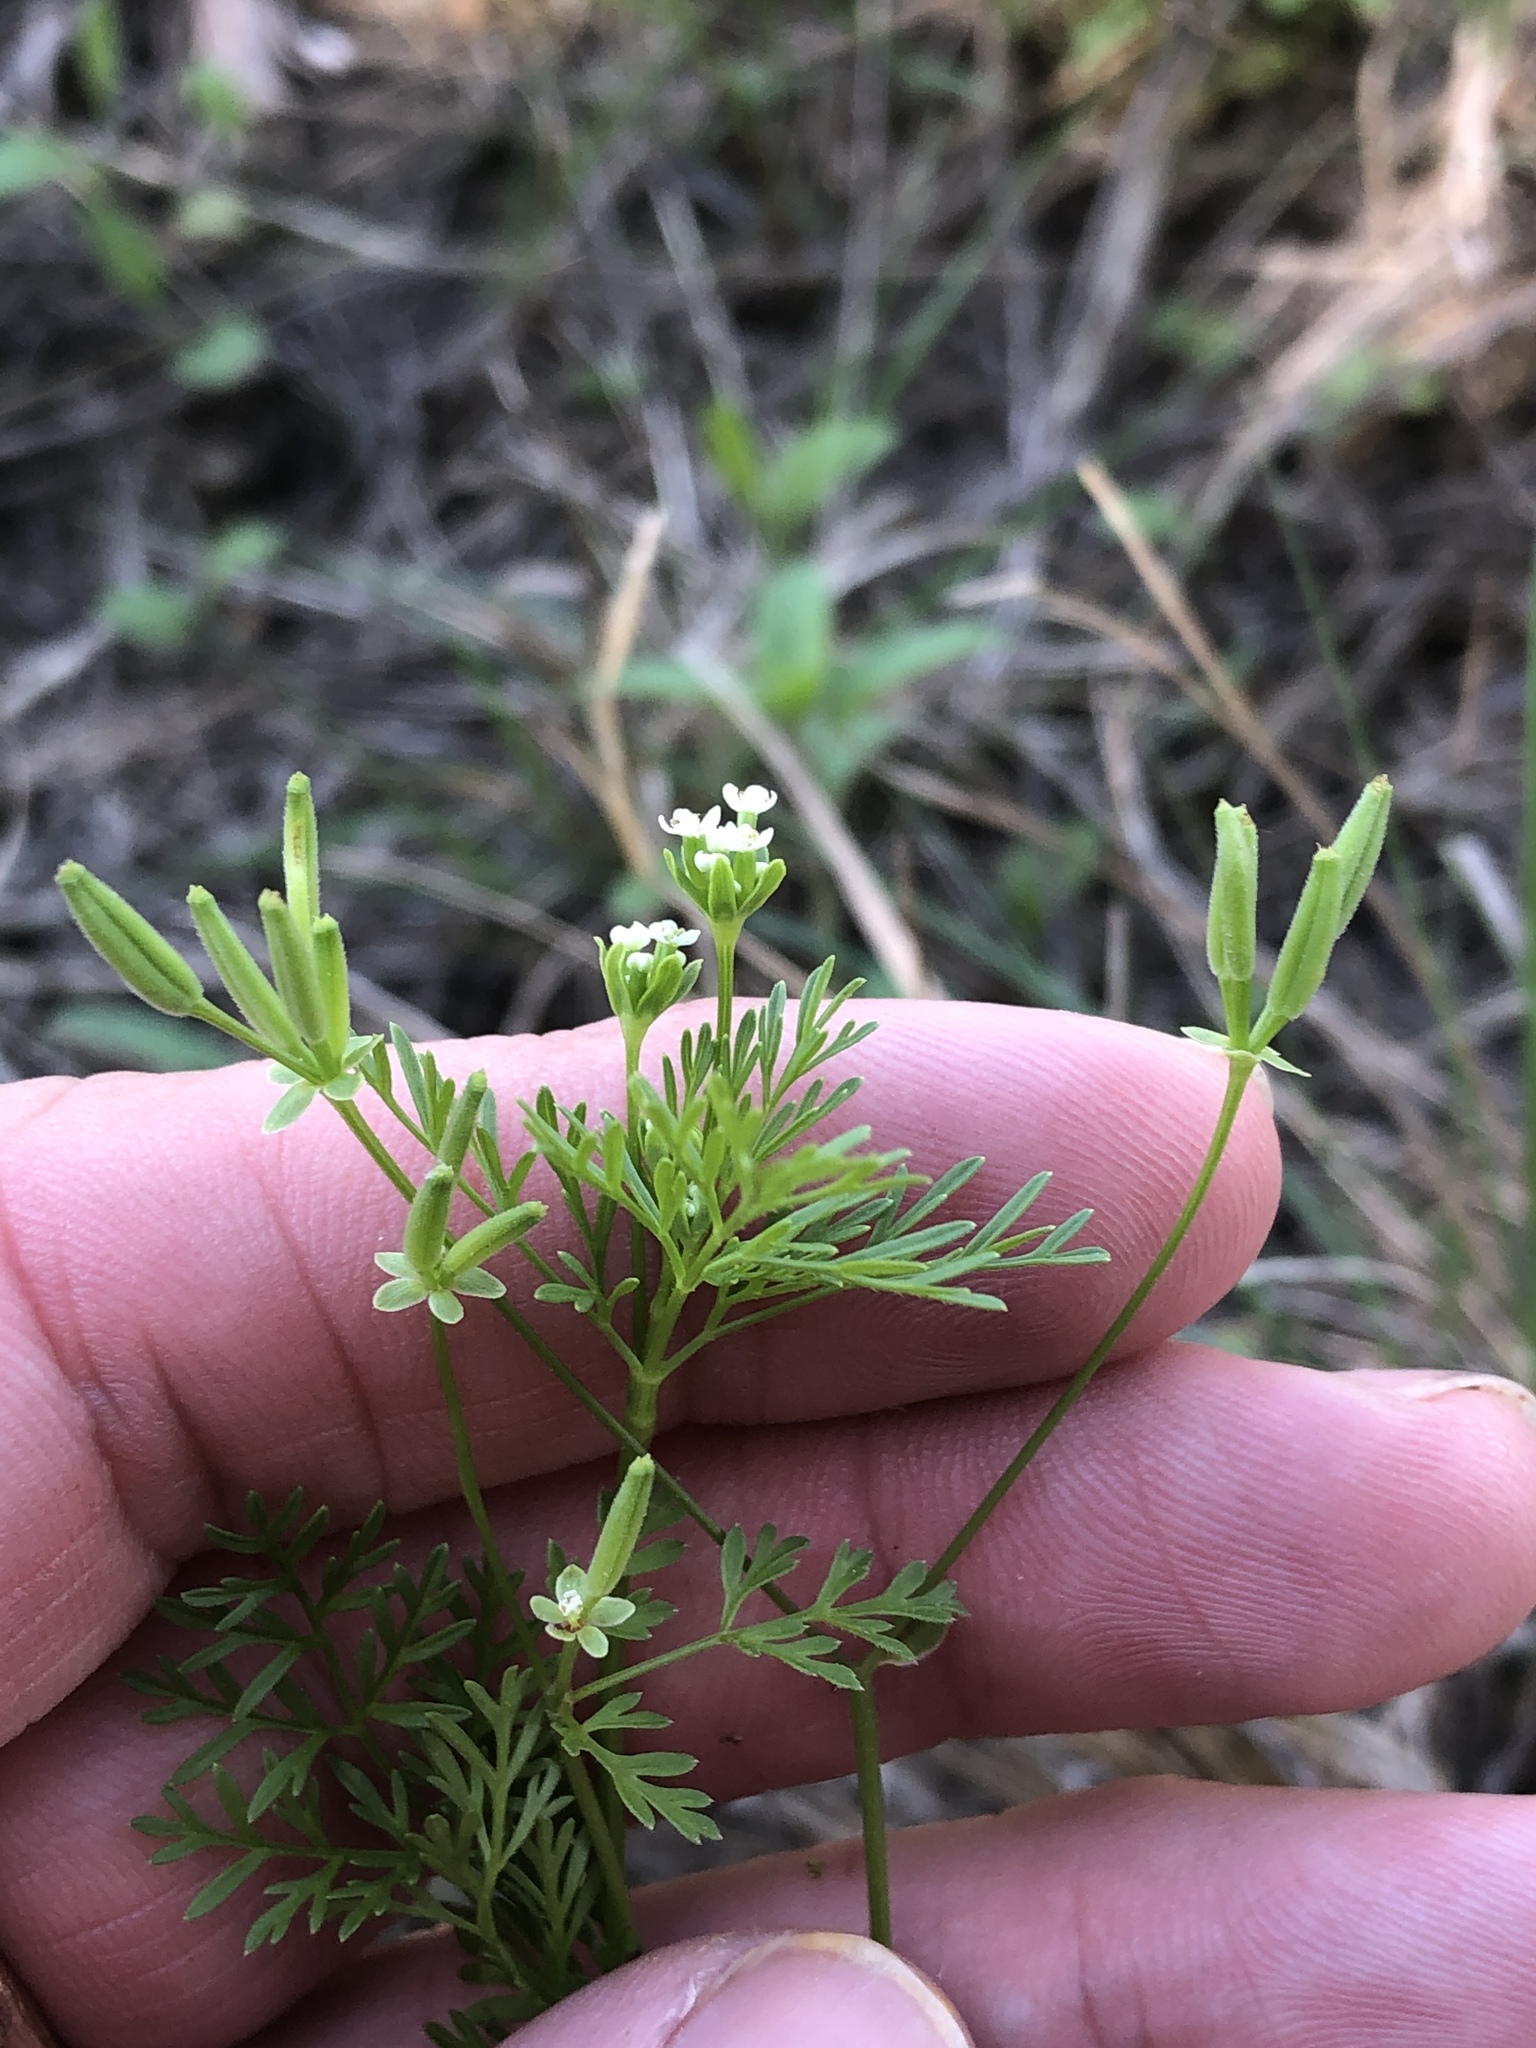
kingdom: Plantae
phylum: Tracheophyta
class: Magnoliopsida
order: Apiales
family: Apiaceae
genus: Chaerophyllum
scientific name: Chaerophyllum tainturieri
